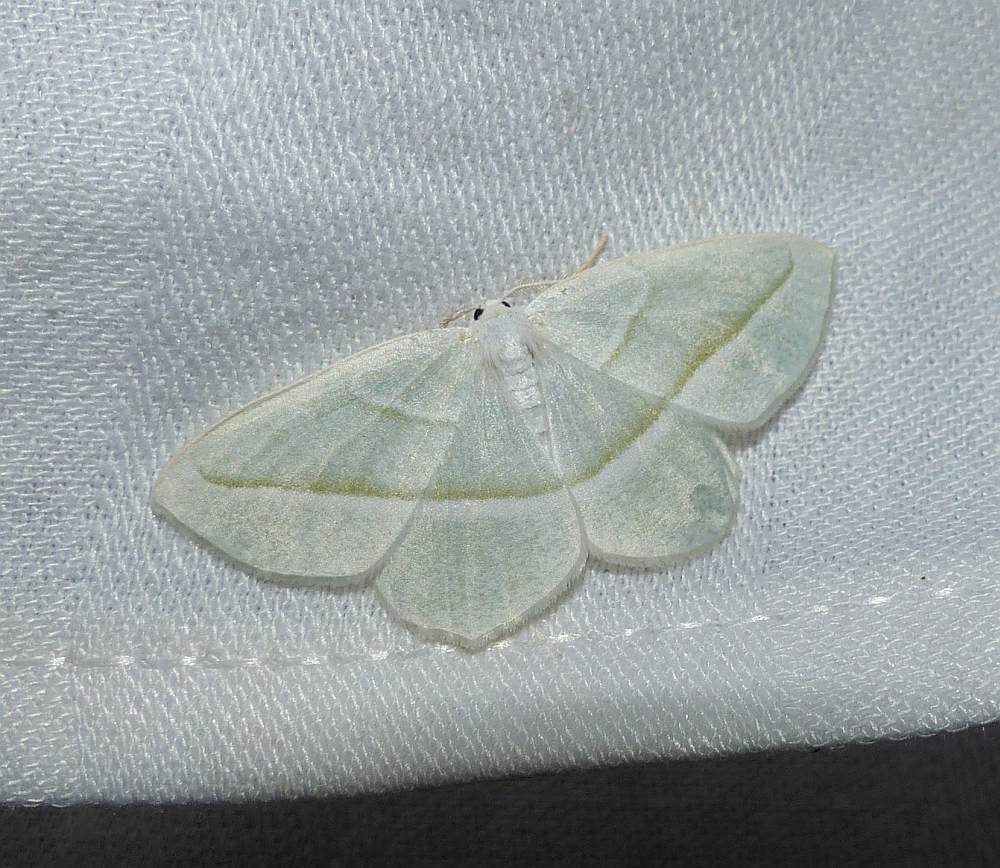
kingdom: Animalia
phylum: Arthropoda
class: Insecta
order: Lepidoptera
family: Geometridae
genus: Campaea
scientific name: Campaea perlata
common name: Fringed looper
